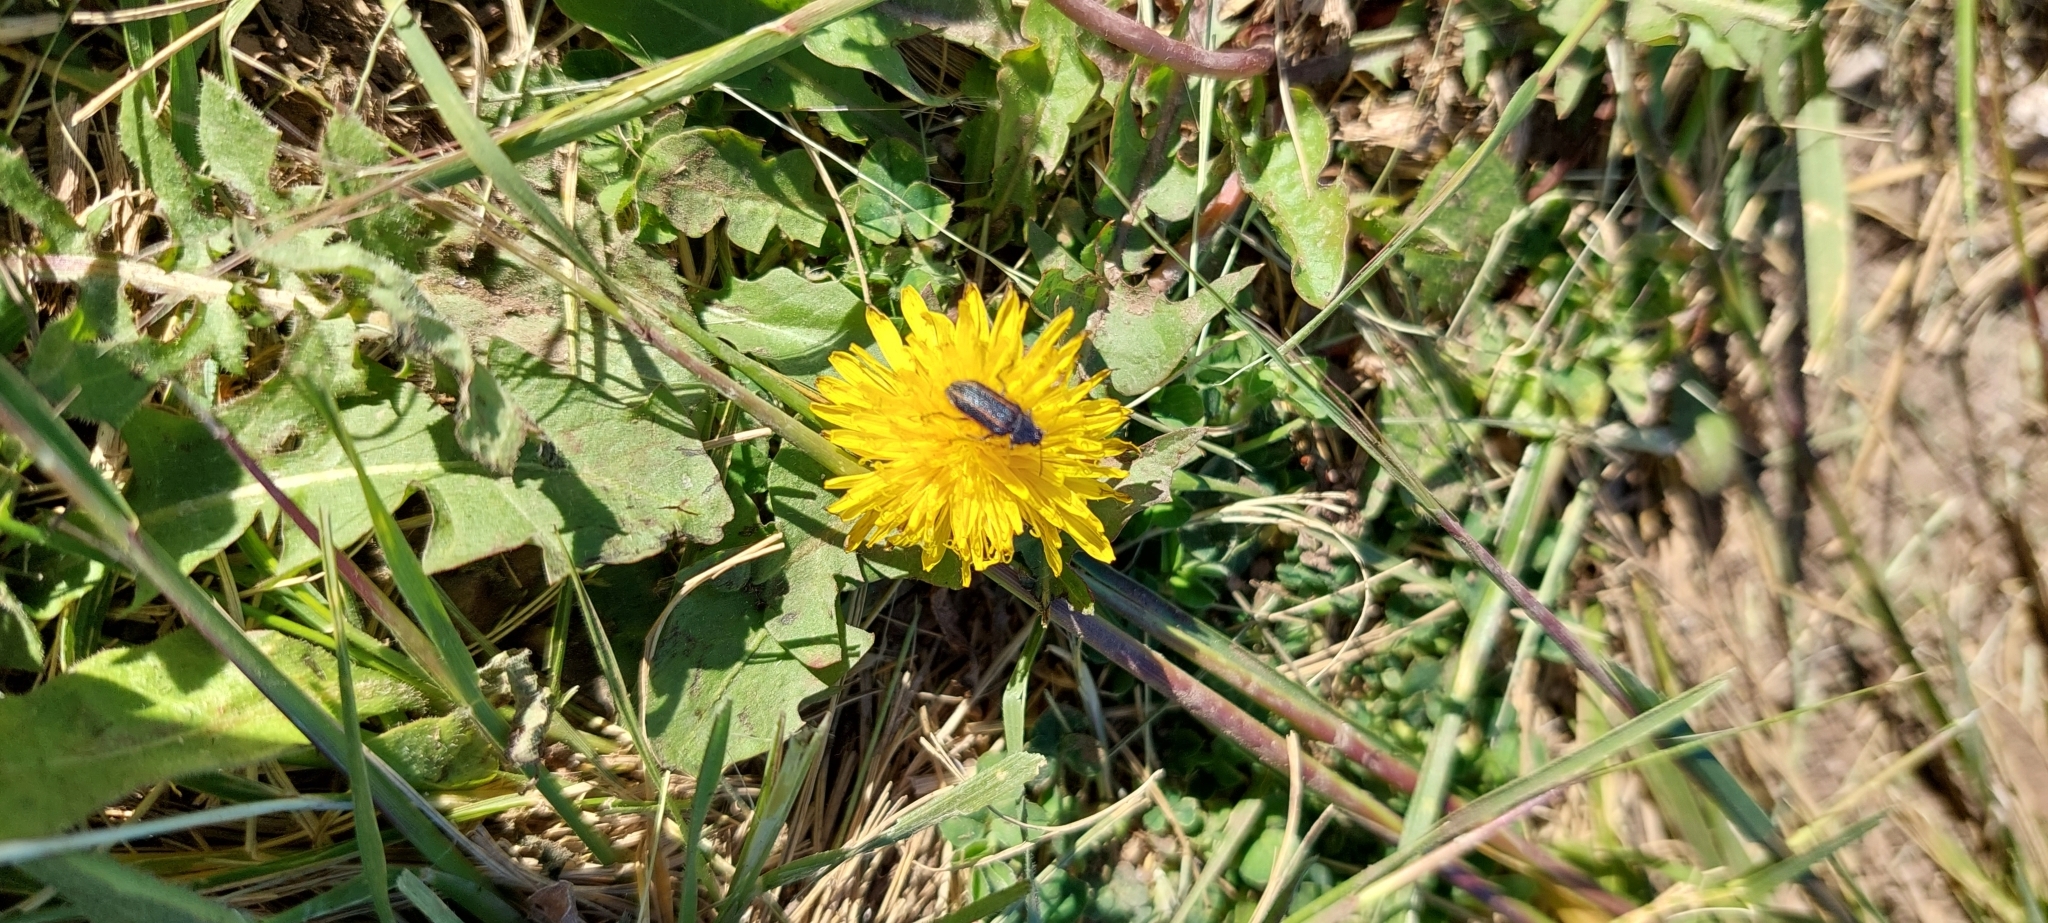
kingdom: Plantae
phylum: Tracheophyta
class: Magnoliopsida
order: Asterales
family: Asteraceae
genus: Taraxacum
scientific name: Taraxacum officinale
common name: Common dandelion
